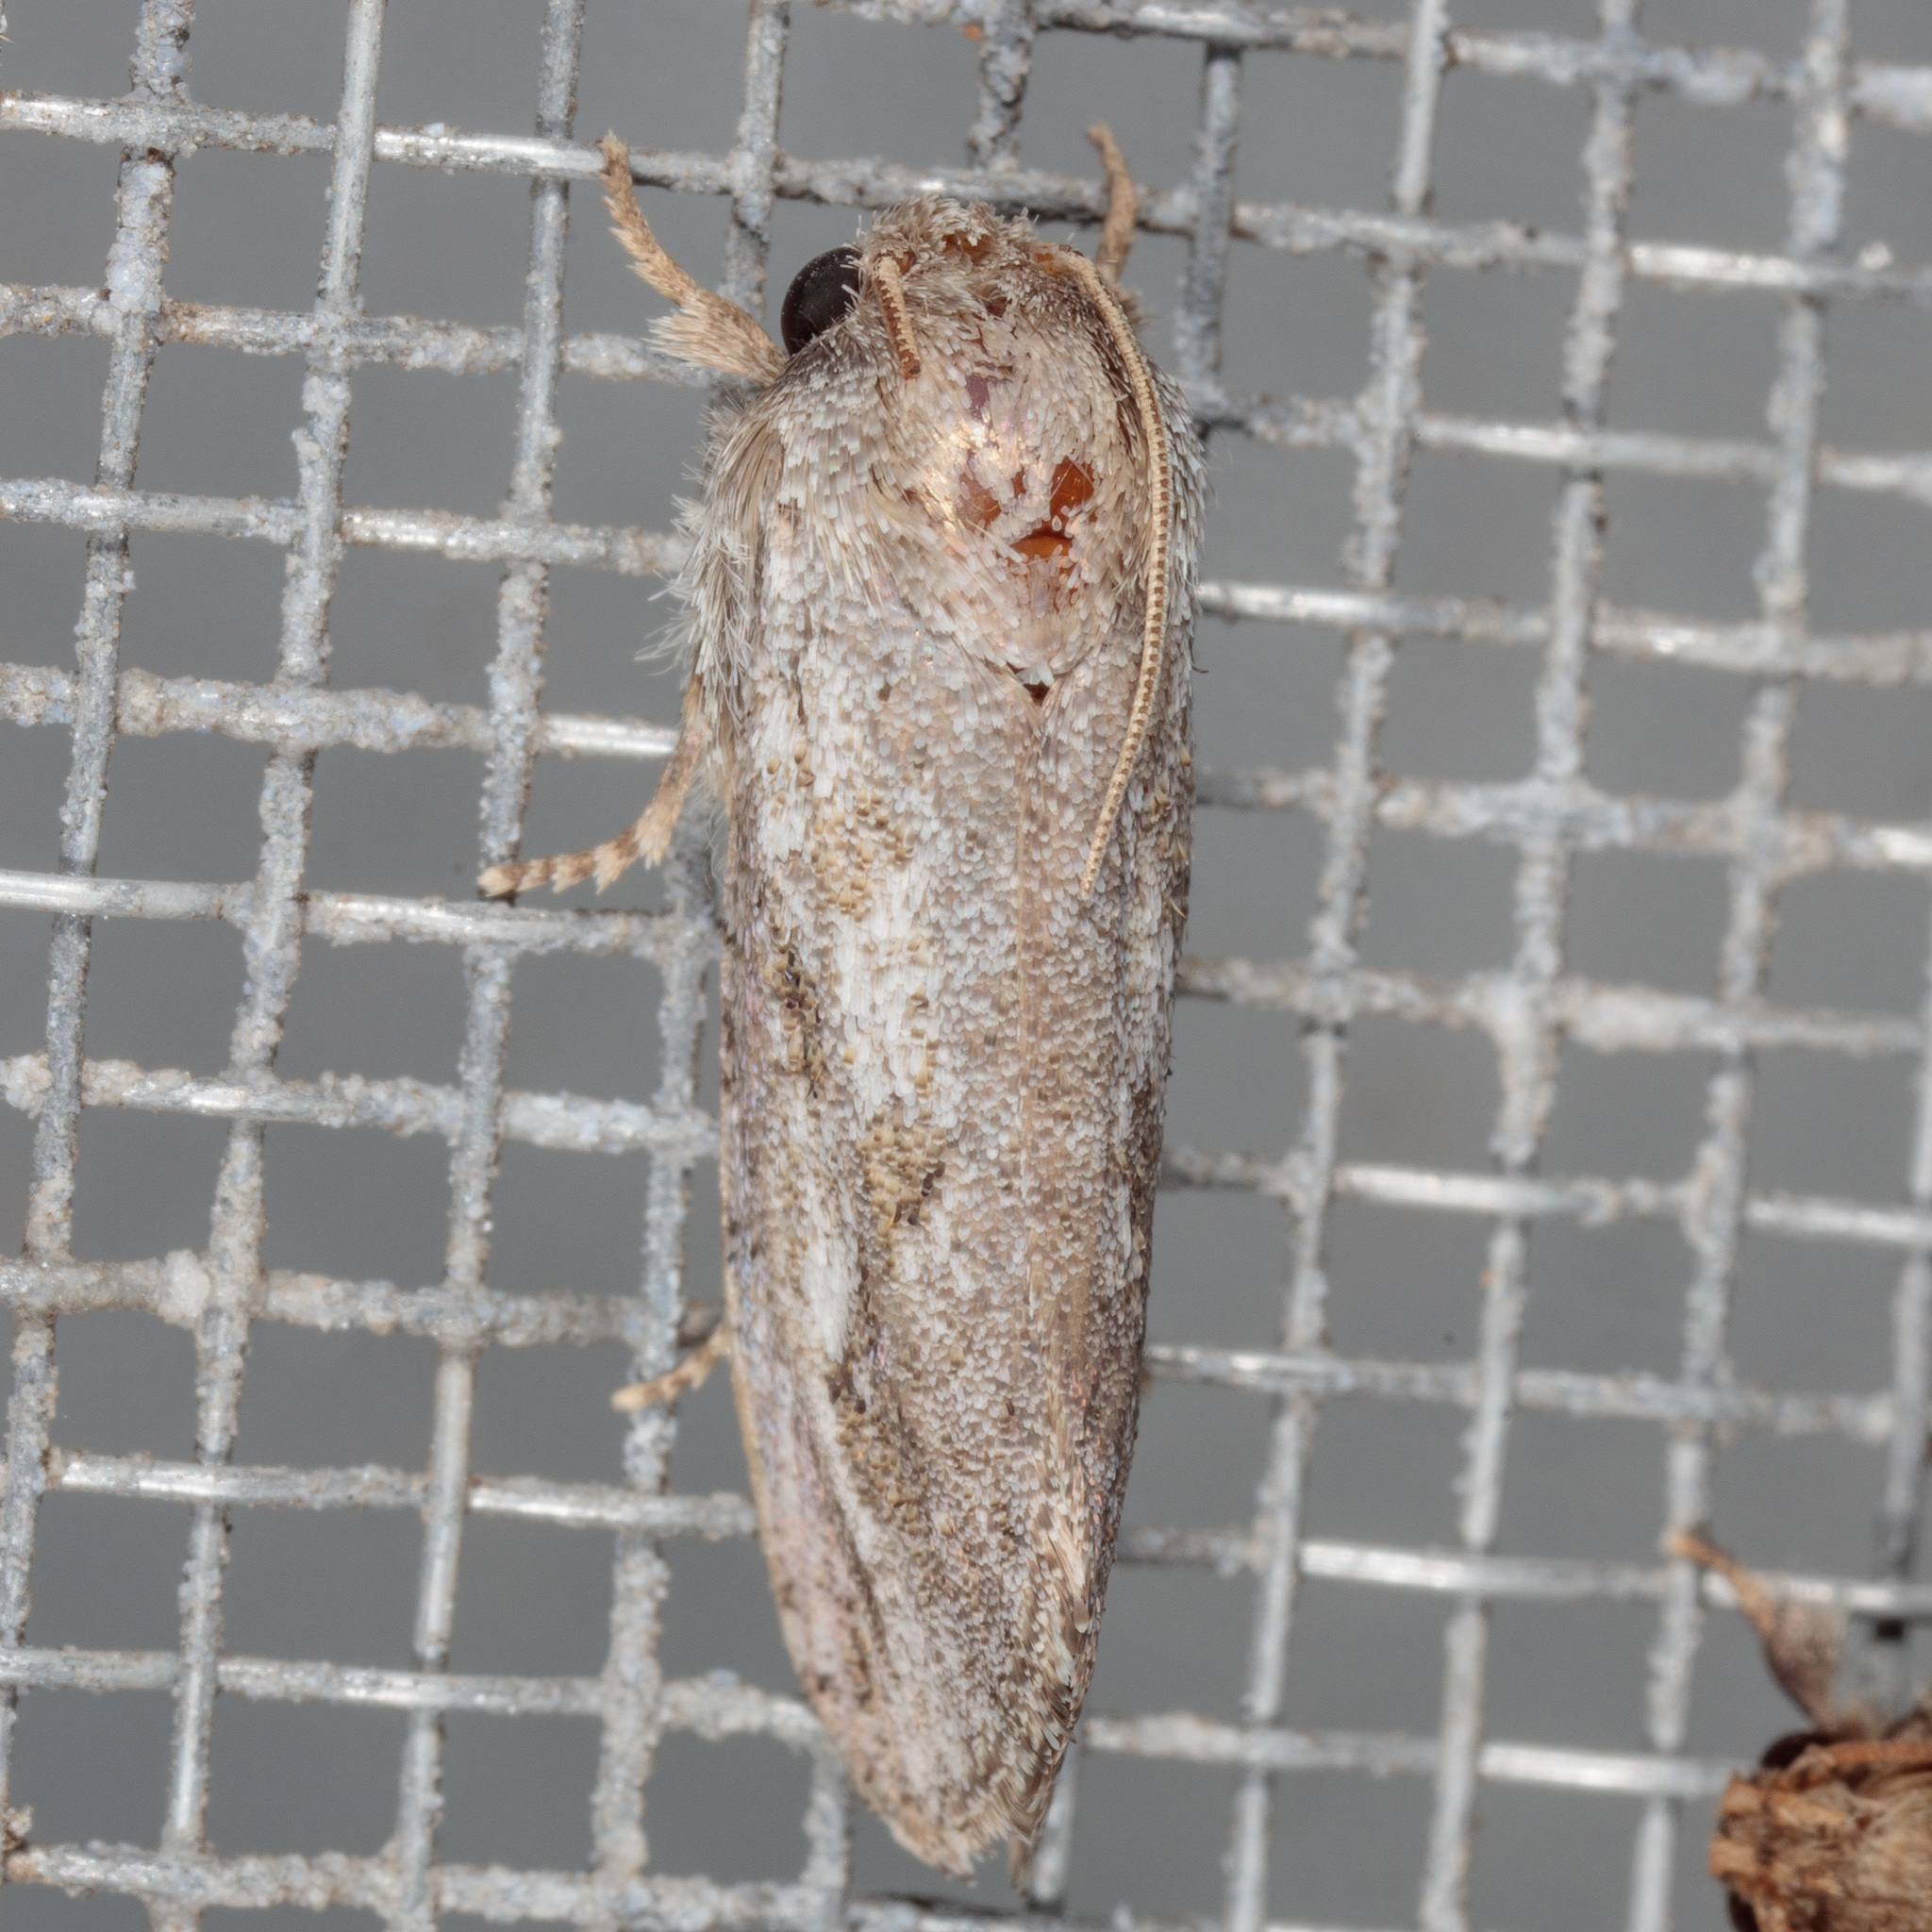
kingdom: Animalia
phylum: Arthropoda
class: Insecta
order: Lepidoptera
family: Tineidae
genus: Acrolophus
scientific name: Acrolophus griseus
